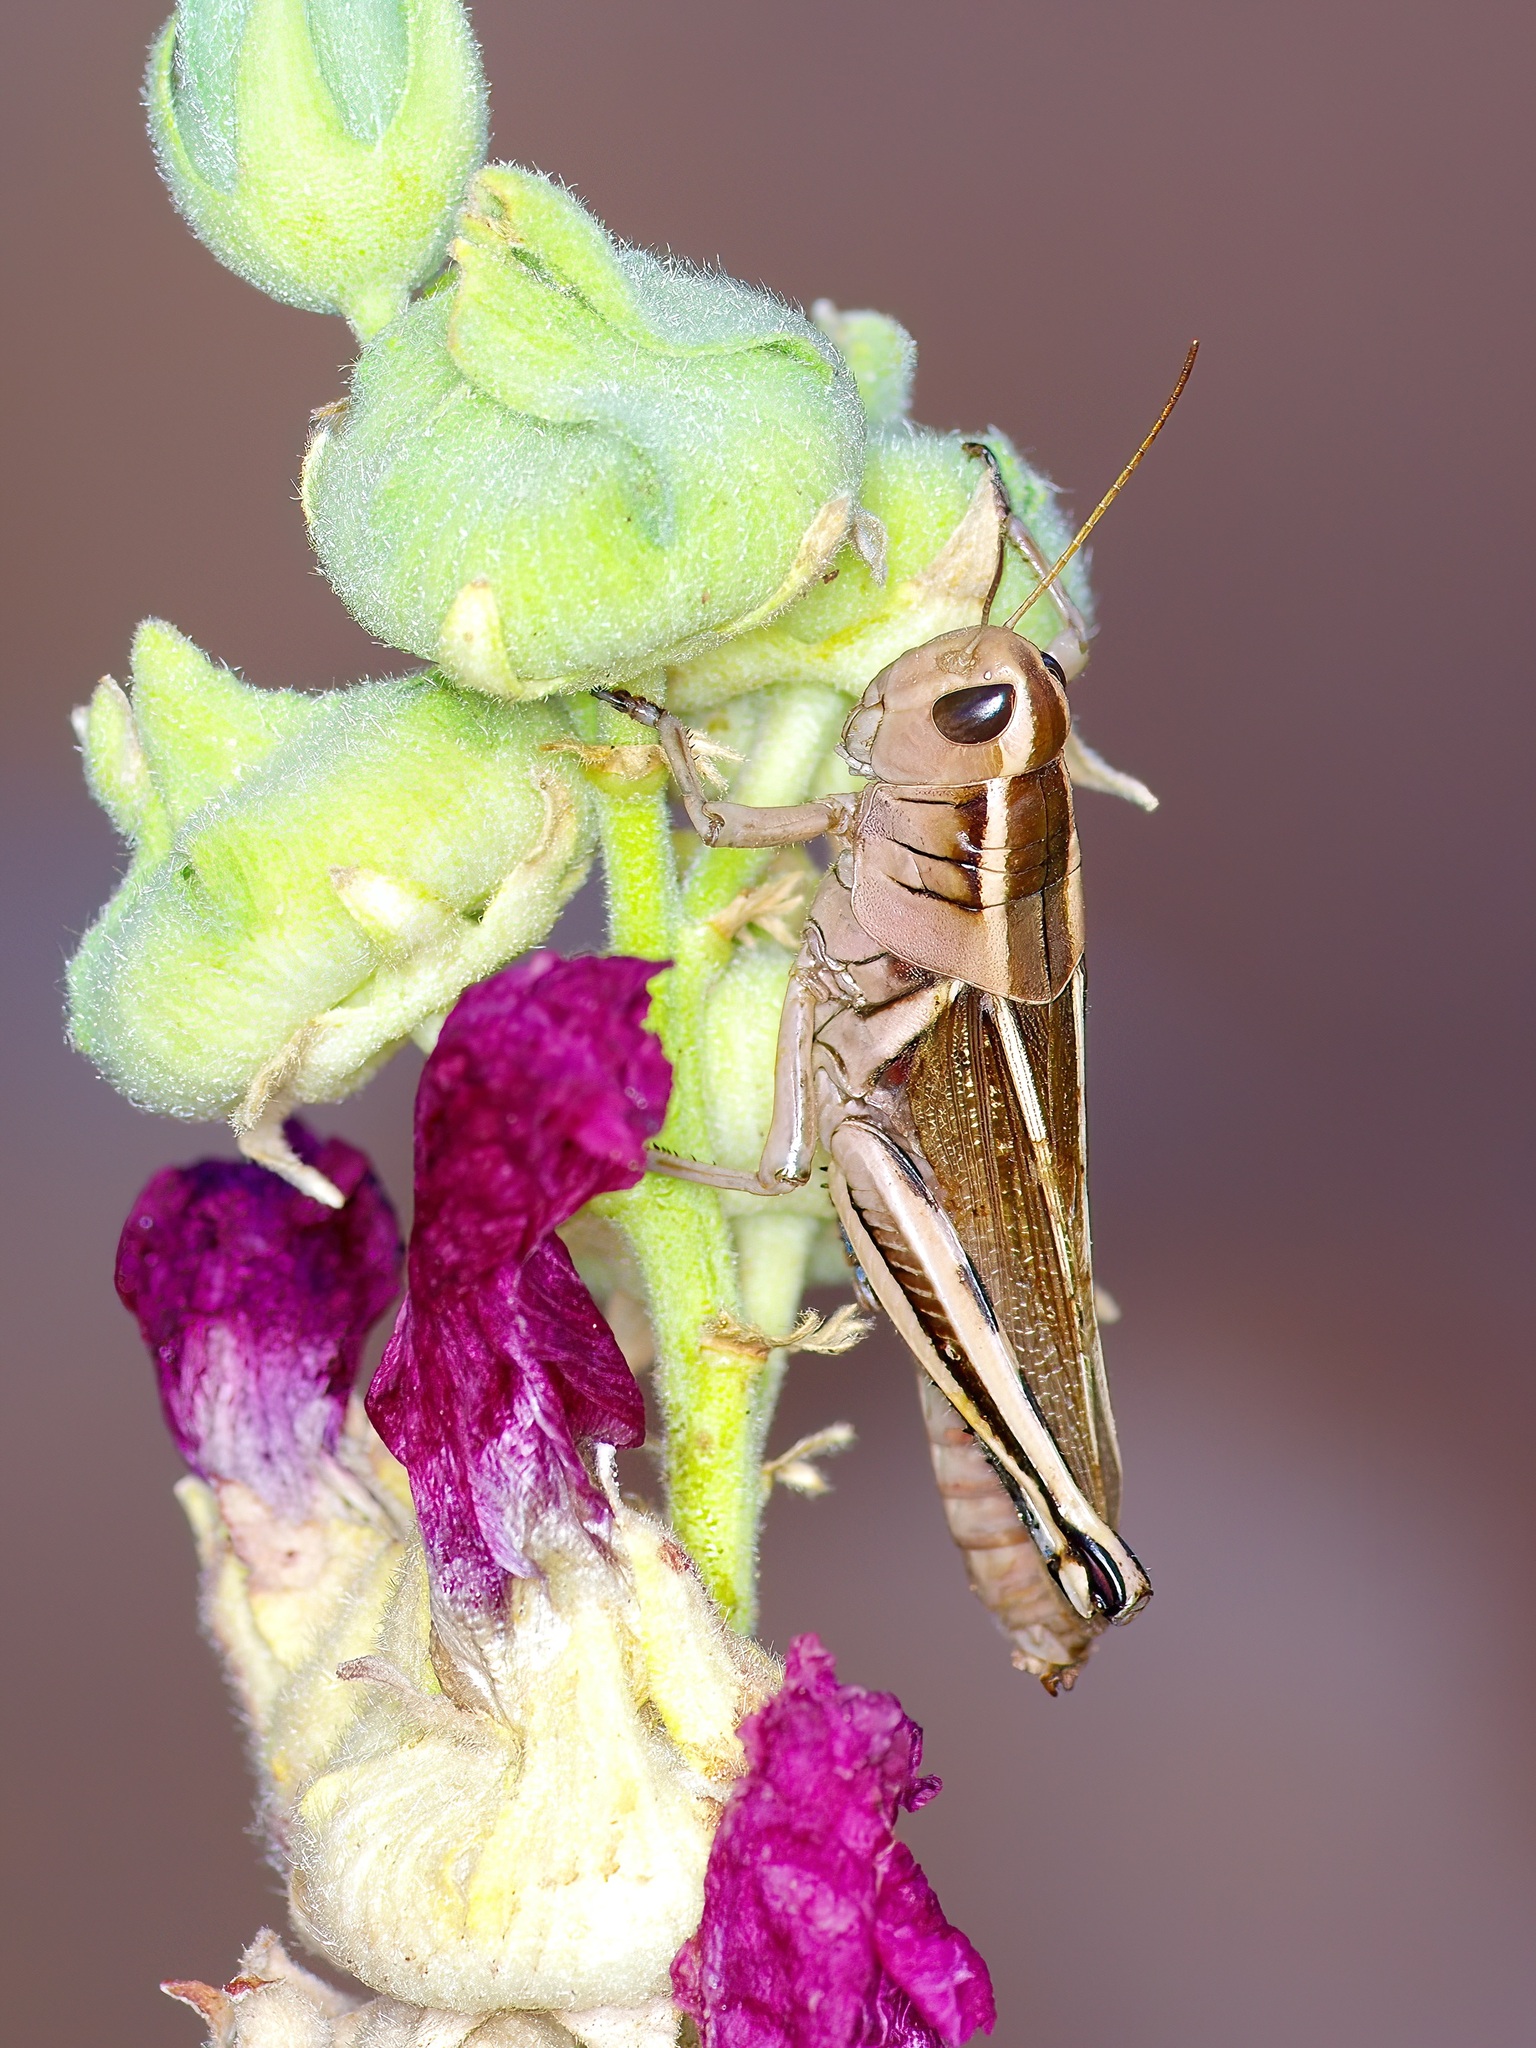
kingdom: Animalia
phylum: Arthropoda
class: Insecta
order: Orthoptera
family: Acrididae
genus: Melanoplus
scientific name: Melanoplus bivittatus
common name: Two-striped grasshopper
